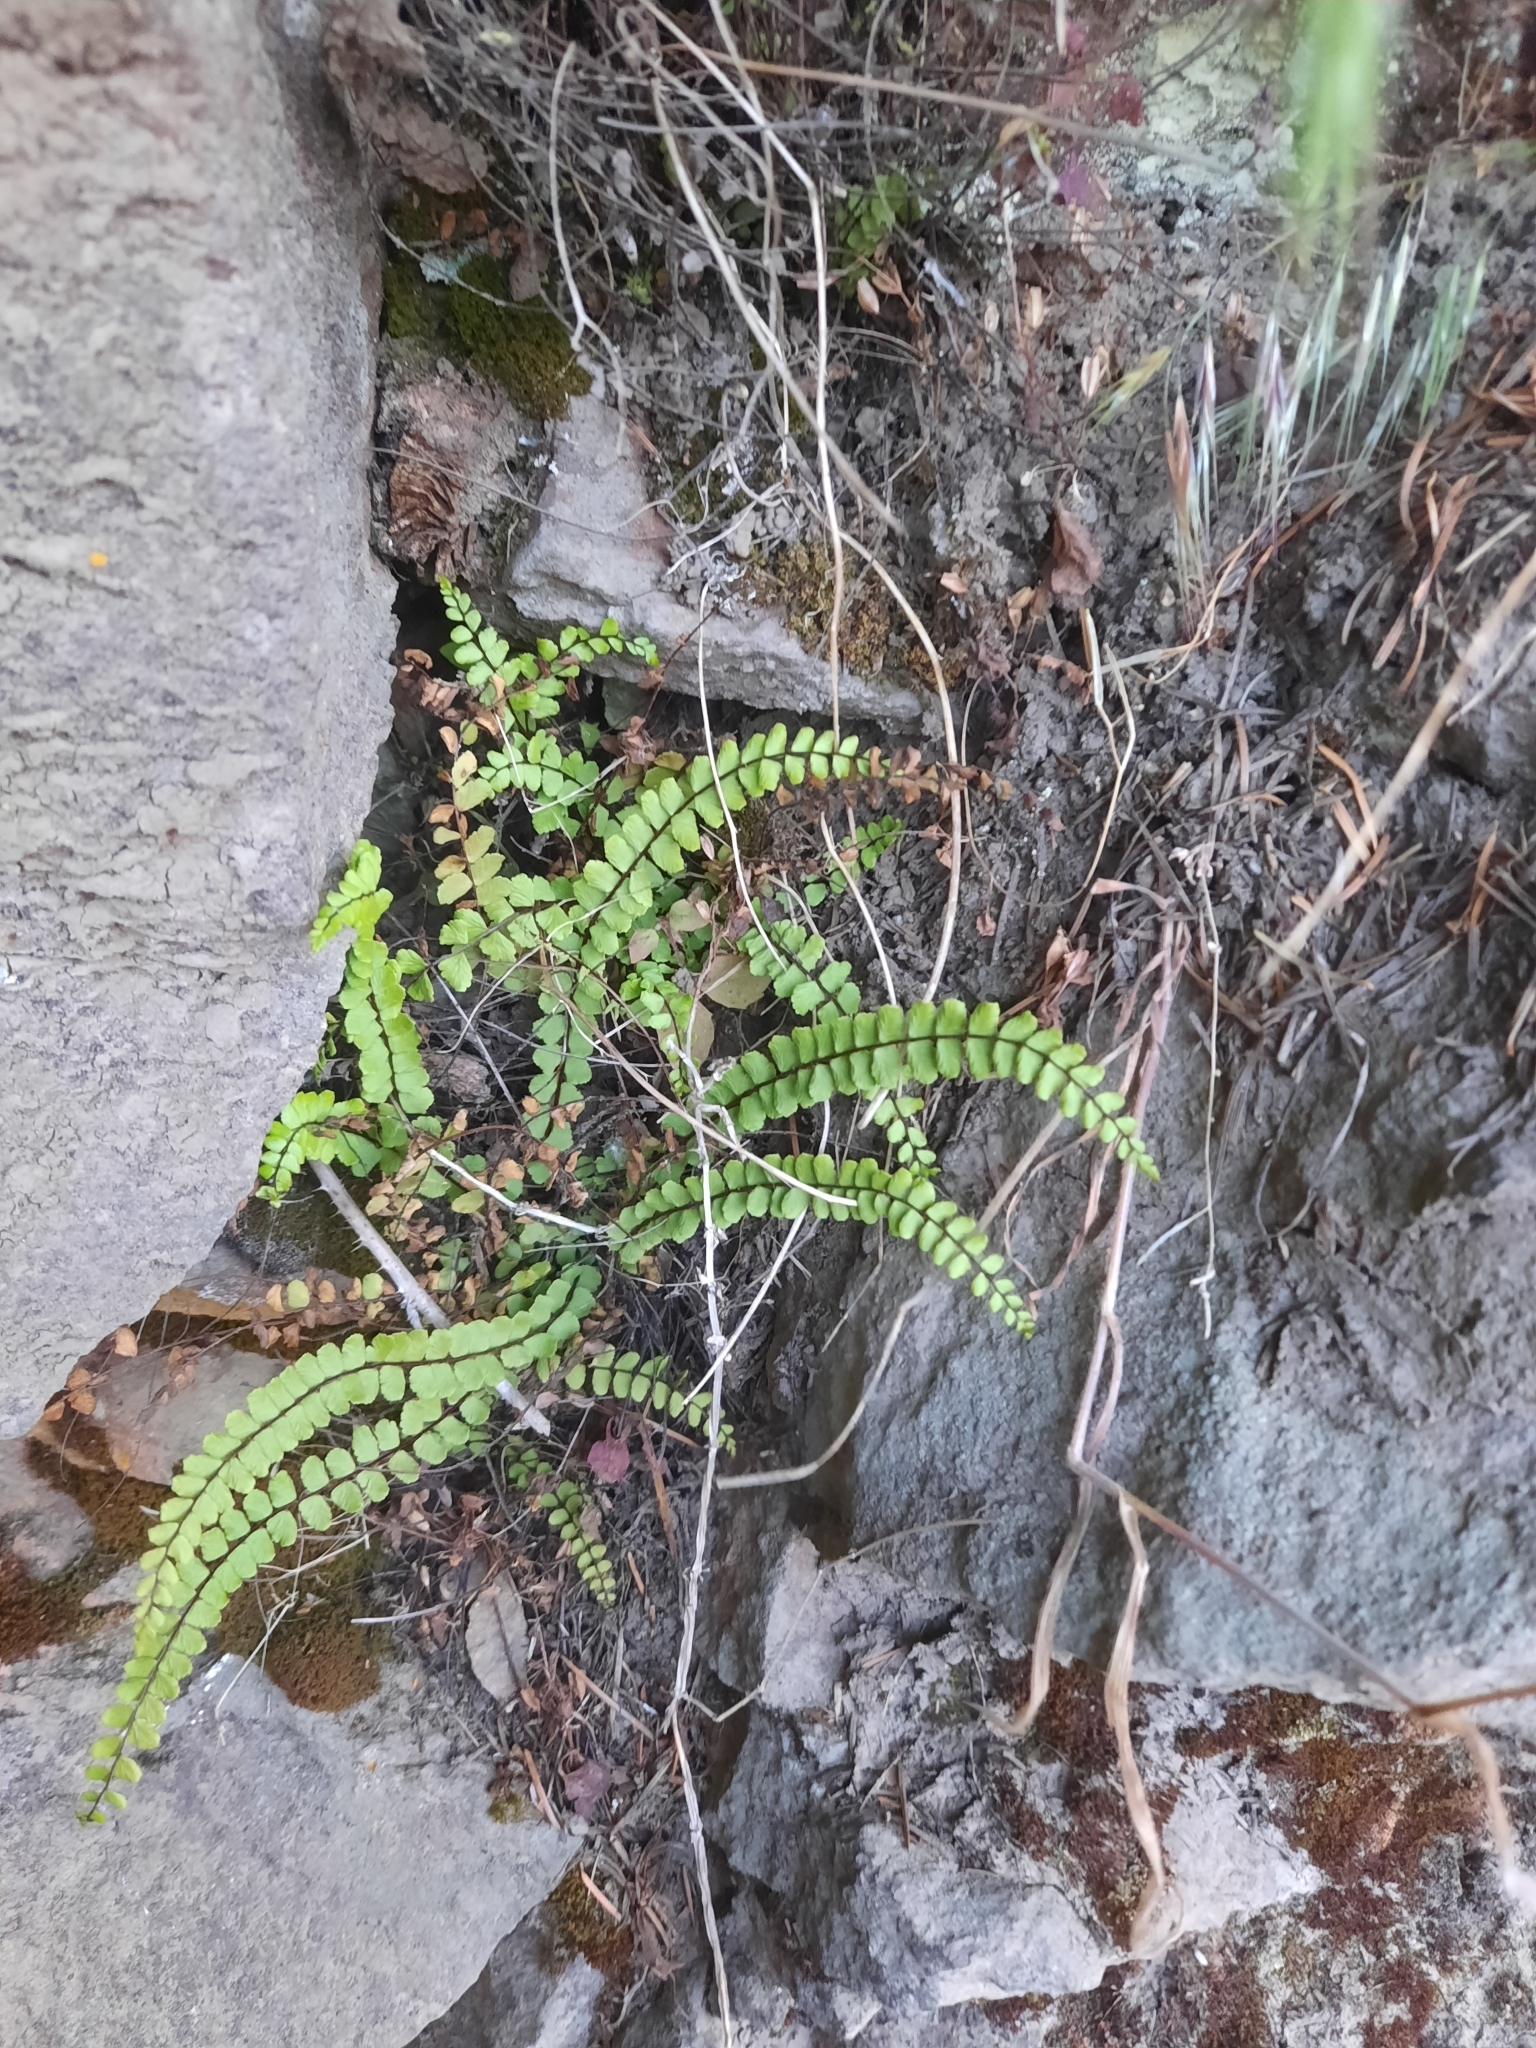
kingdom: Plantae
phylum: Tracheophyta
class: Polypodiopsida
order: Polypodiales
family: Aspleniaceae
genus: Asplenium
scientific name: Asplenium trichomanes
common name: Maidenhair spleenwort
